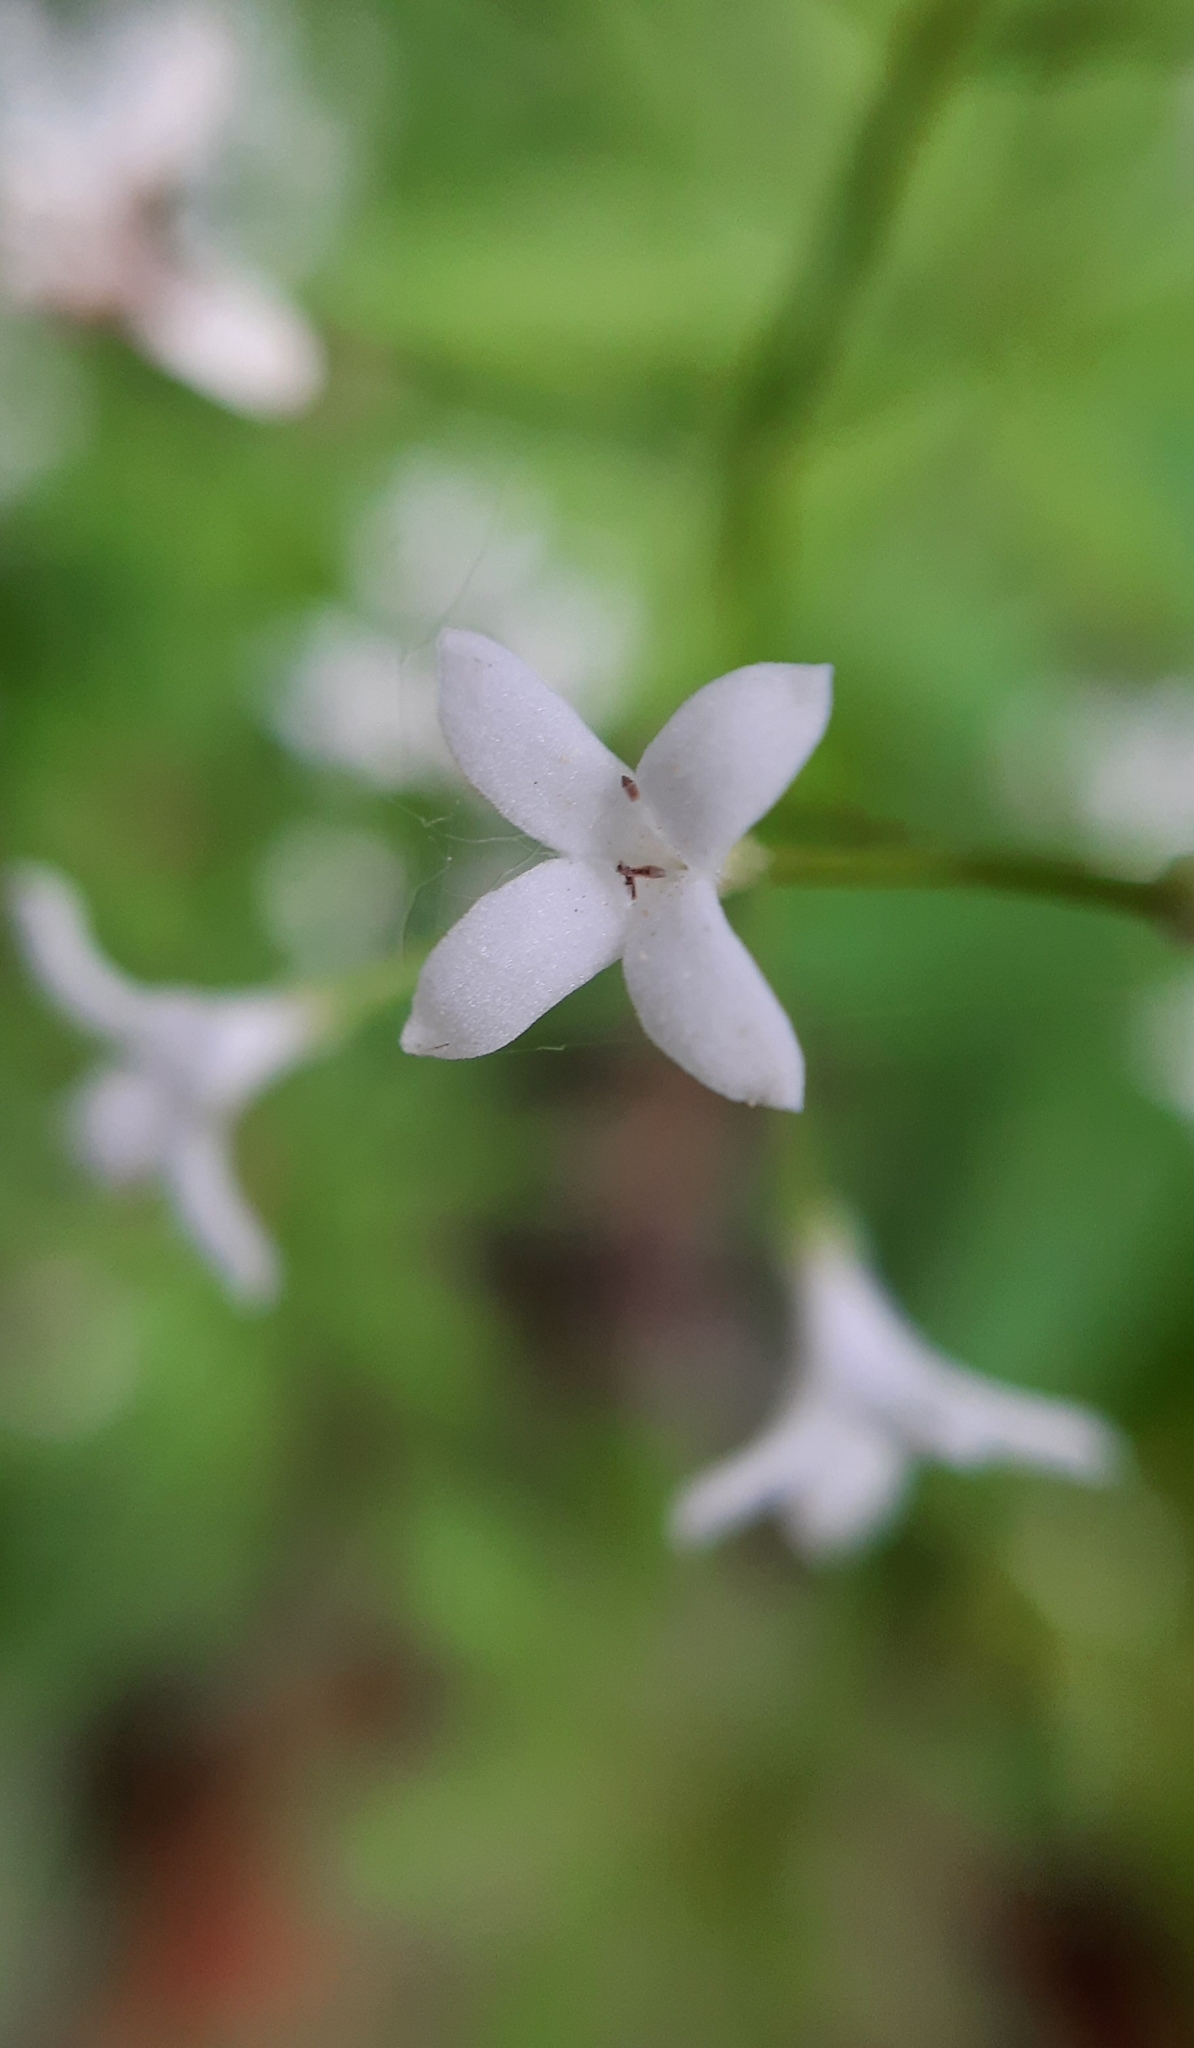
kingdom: Plantae
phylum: Tracheophyta
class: Magnoliopsida
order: Gentianales
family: Rubiaceae
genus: Galium
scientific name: Galium odoratum
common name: Sweet woodruff
